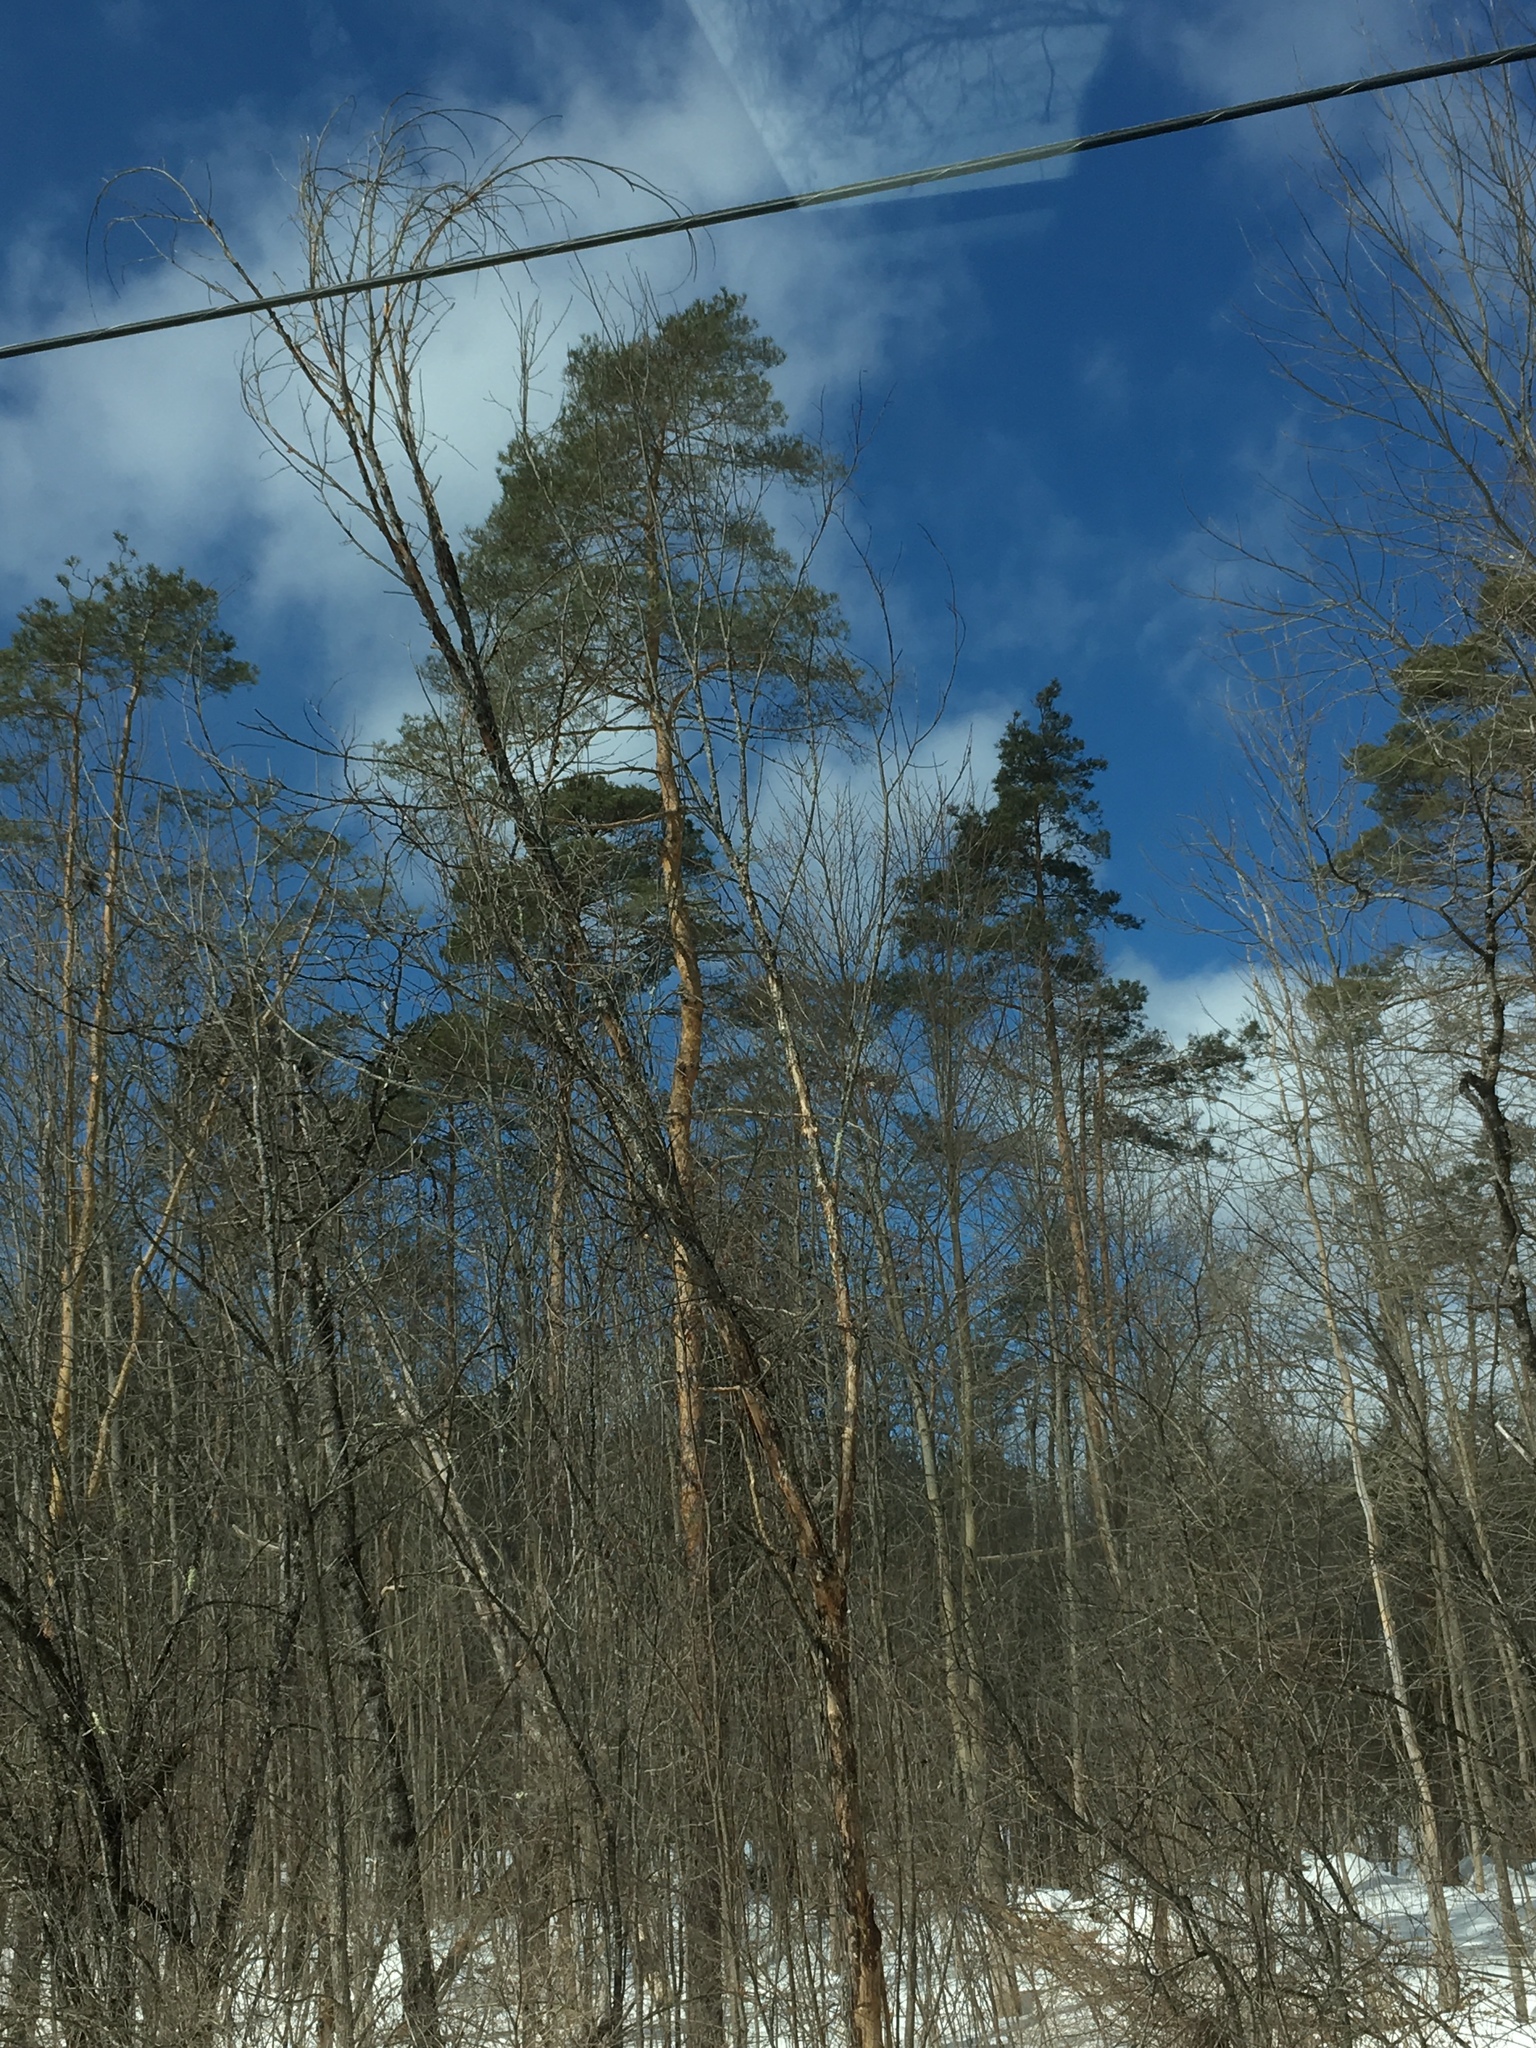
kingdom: Plantae
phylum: Tracheophyta
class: Pinopsida
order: Pinales
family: Pinaceae
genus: Pinus
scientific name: Pinus sylvestris
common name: Scots pine
